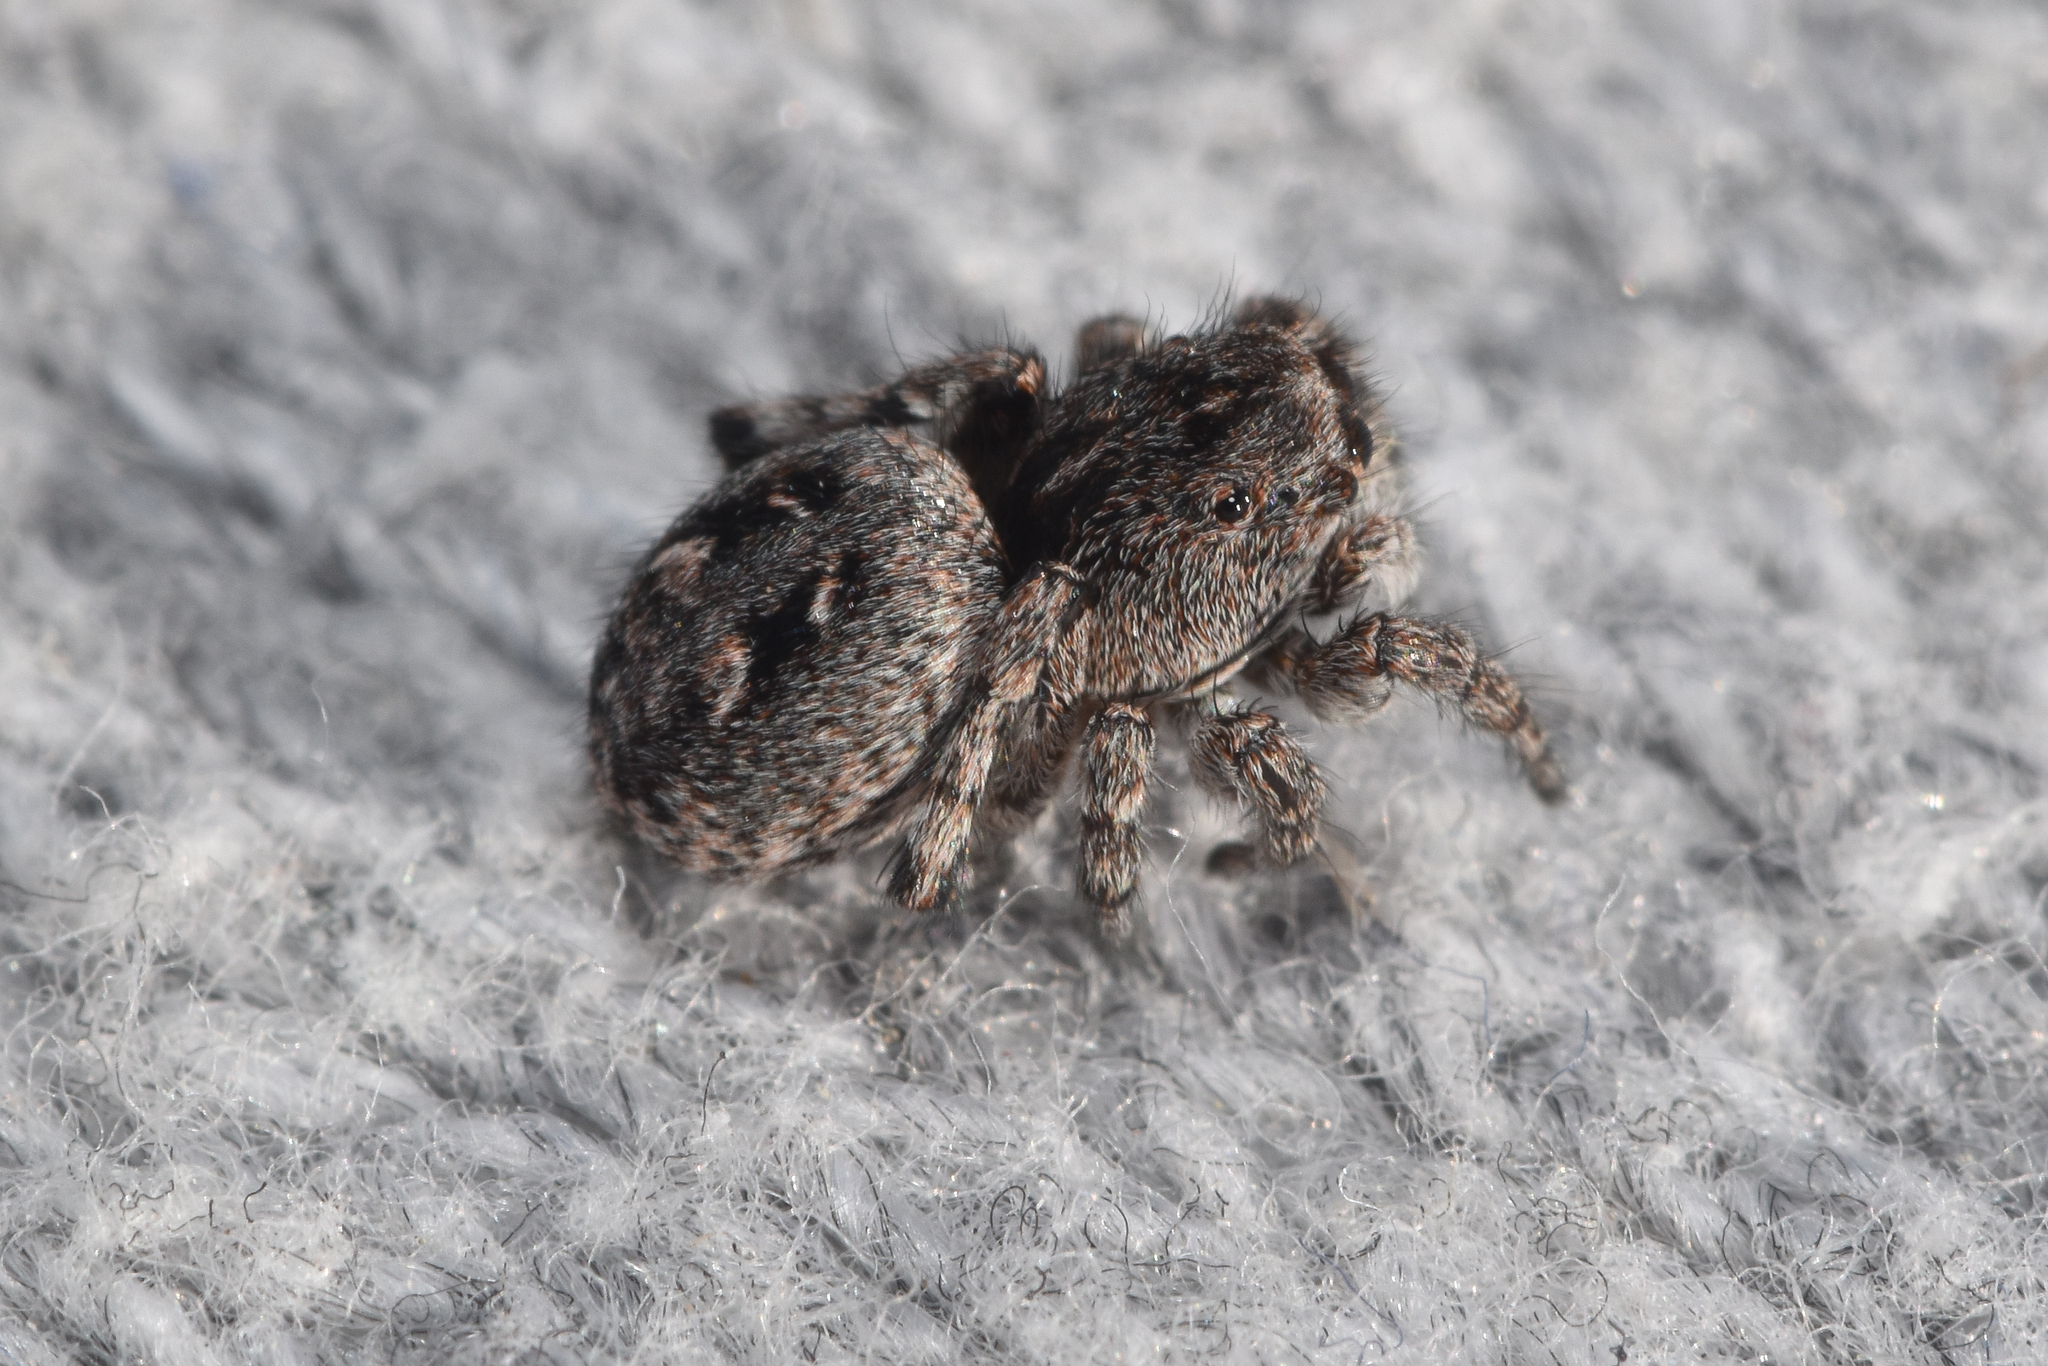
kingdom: Animalia
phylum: Arthropoda
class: Arachnida
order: Araneae
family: Salticidae
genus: Sittisax
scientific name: Sittisax ranieri
